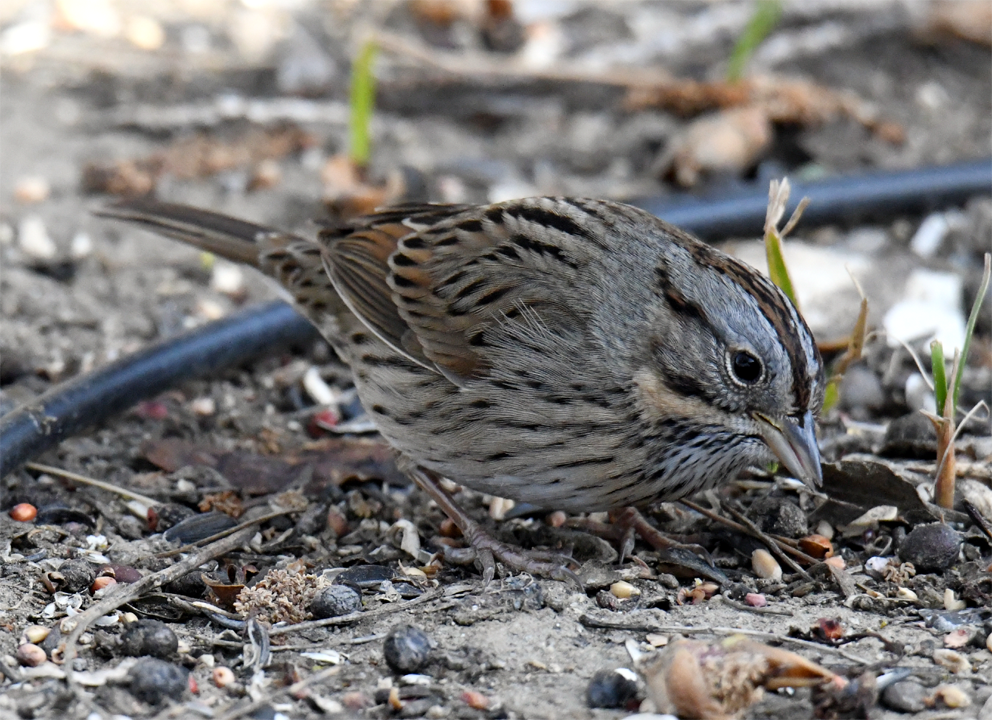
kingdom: Animalia
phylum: Chordata
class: Aves
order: Passeriformes
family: Passerellidae
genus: Melospiza
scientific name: Melospiza lincolnii
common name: Lincoln's sparrow
